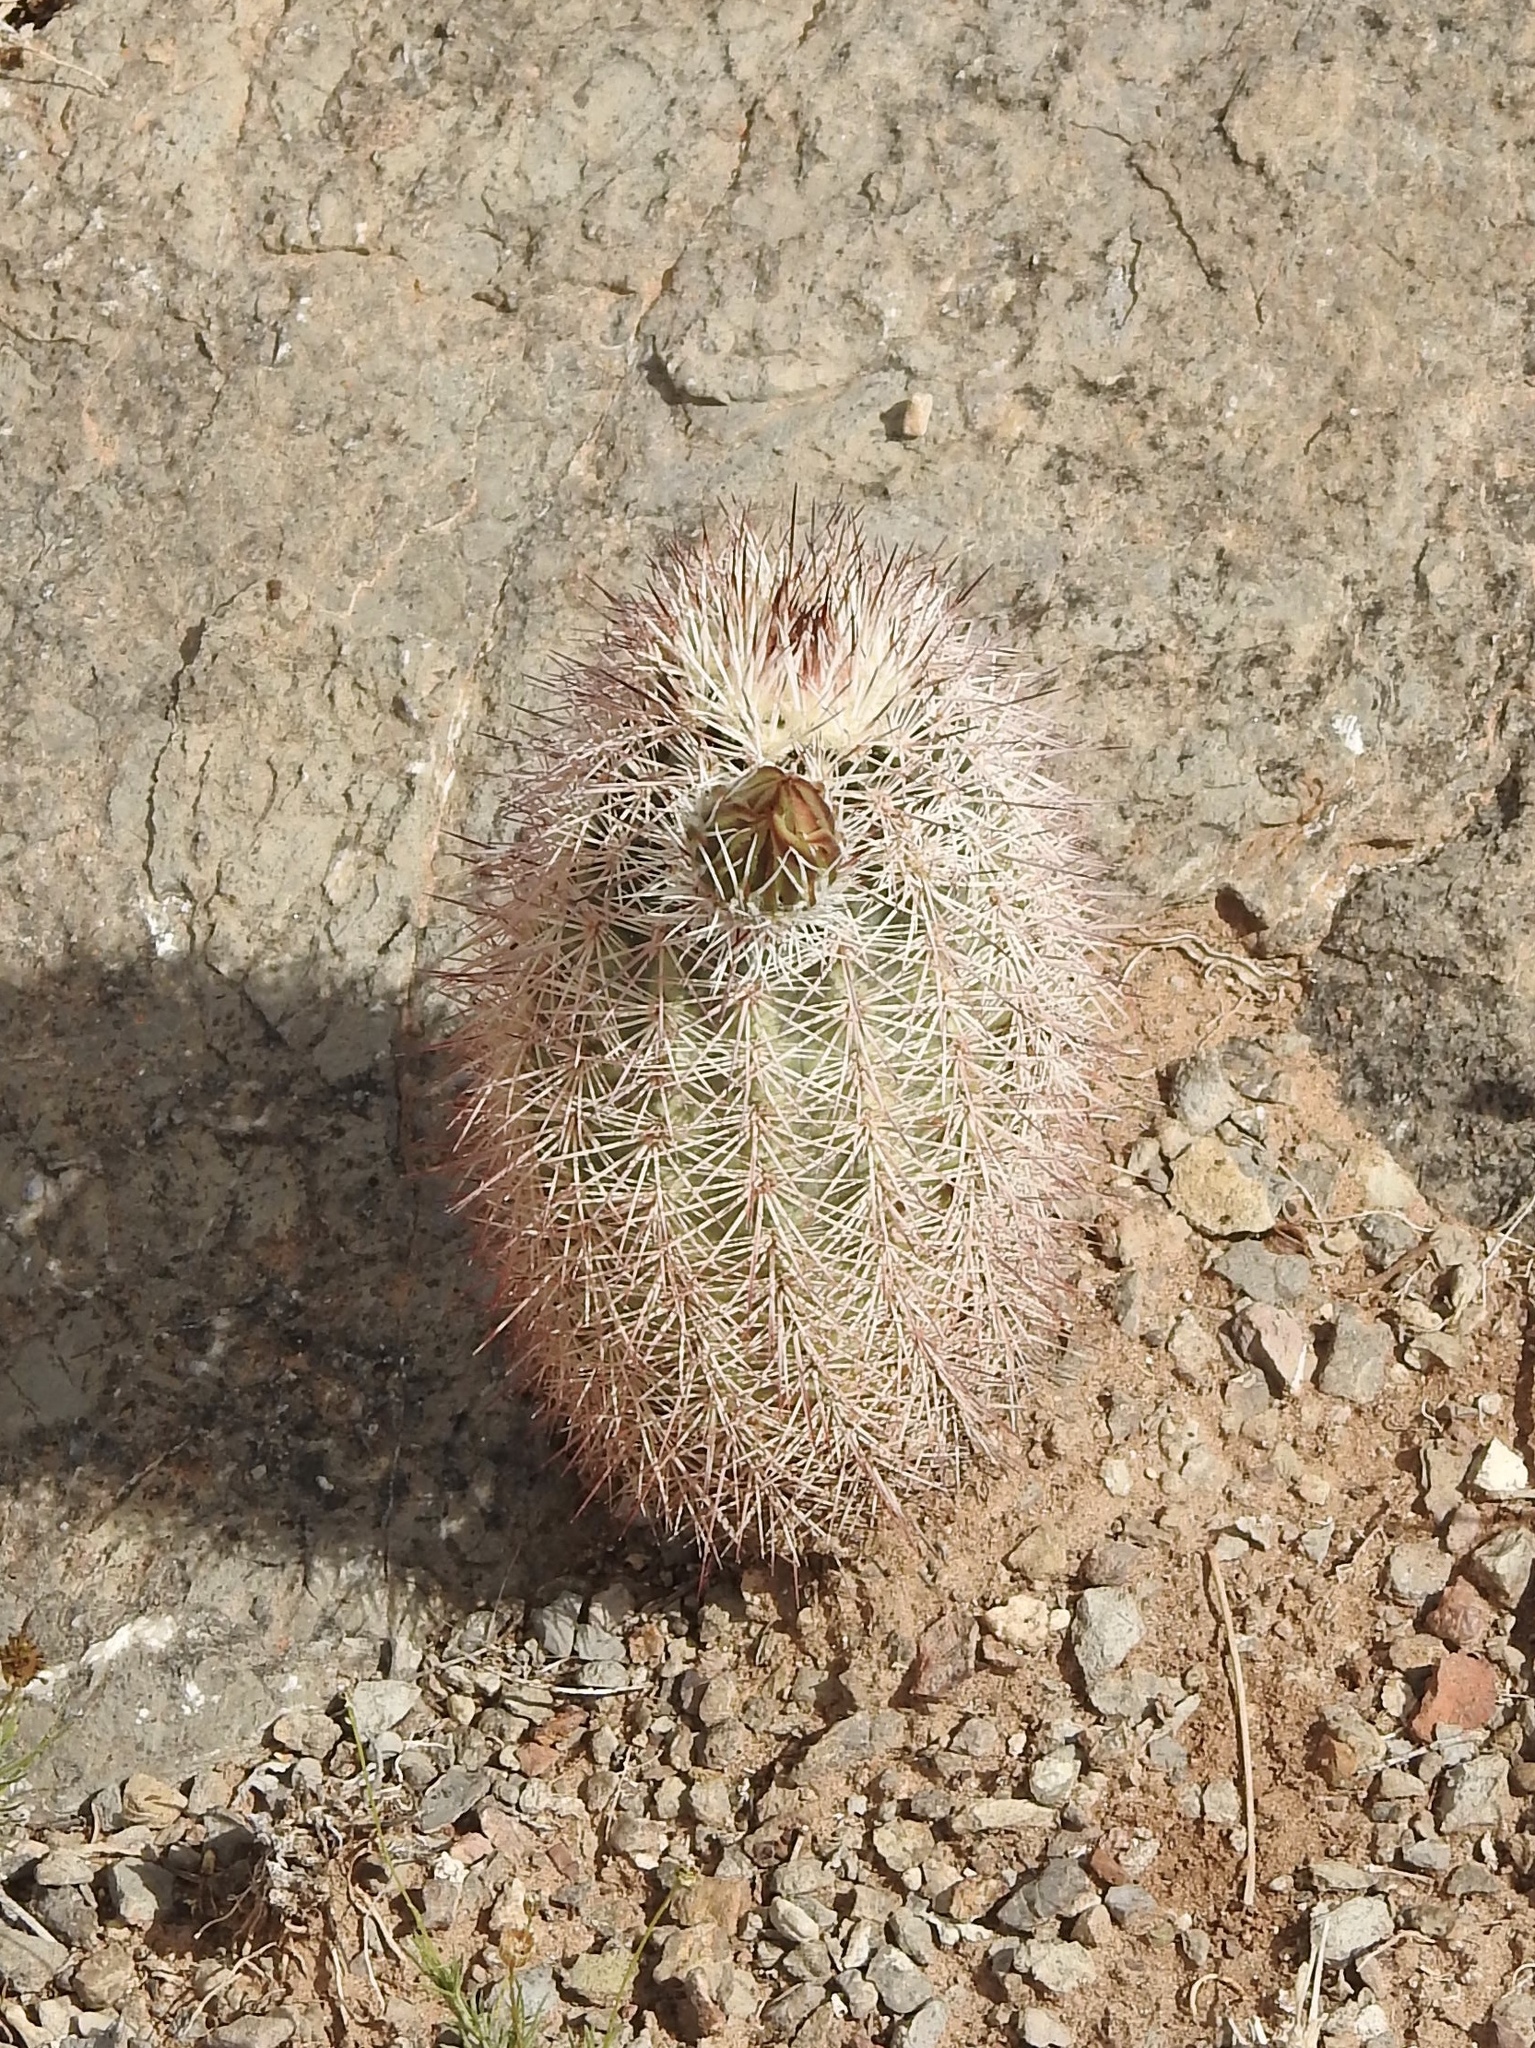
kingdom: Plantae
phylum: Tracheophyta
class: Magnoliopsida
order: Caryophyllales
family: Cactaceae
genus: Echinocereus
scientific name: Echinocereus dasyacanthus
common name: Spiny hedgehog cactus
